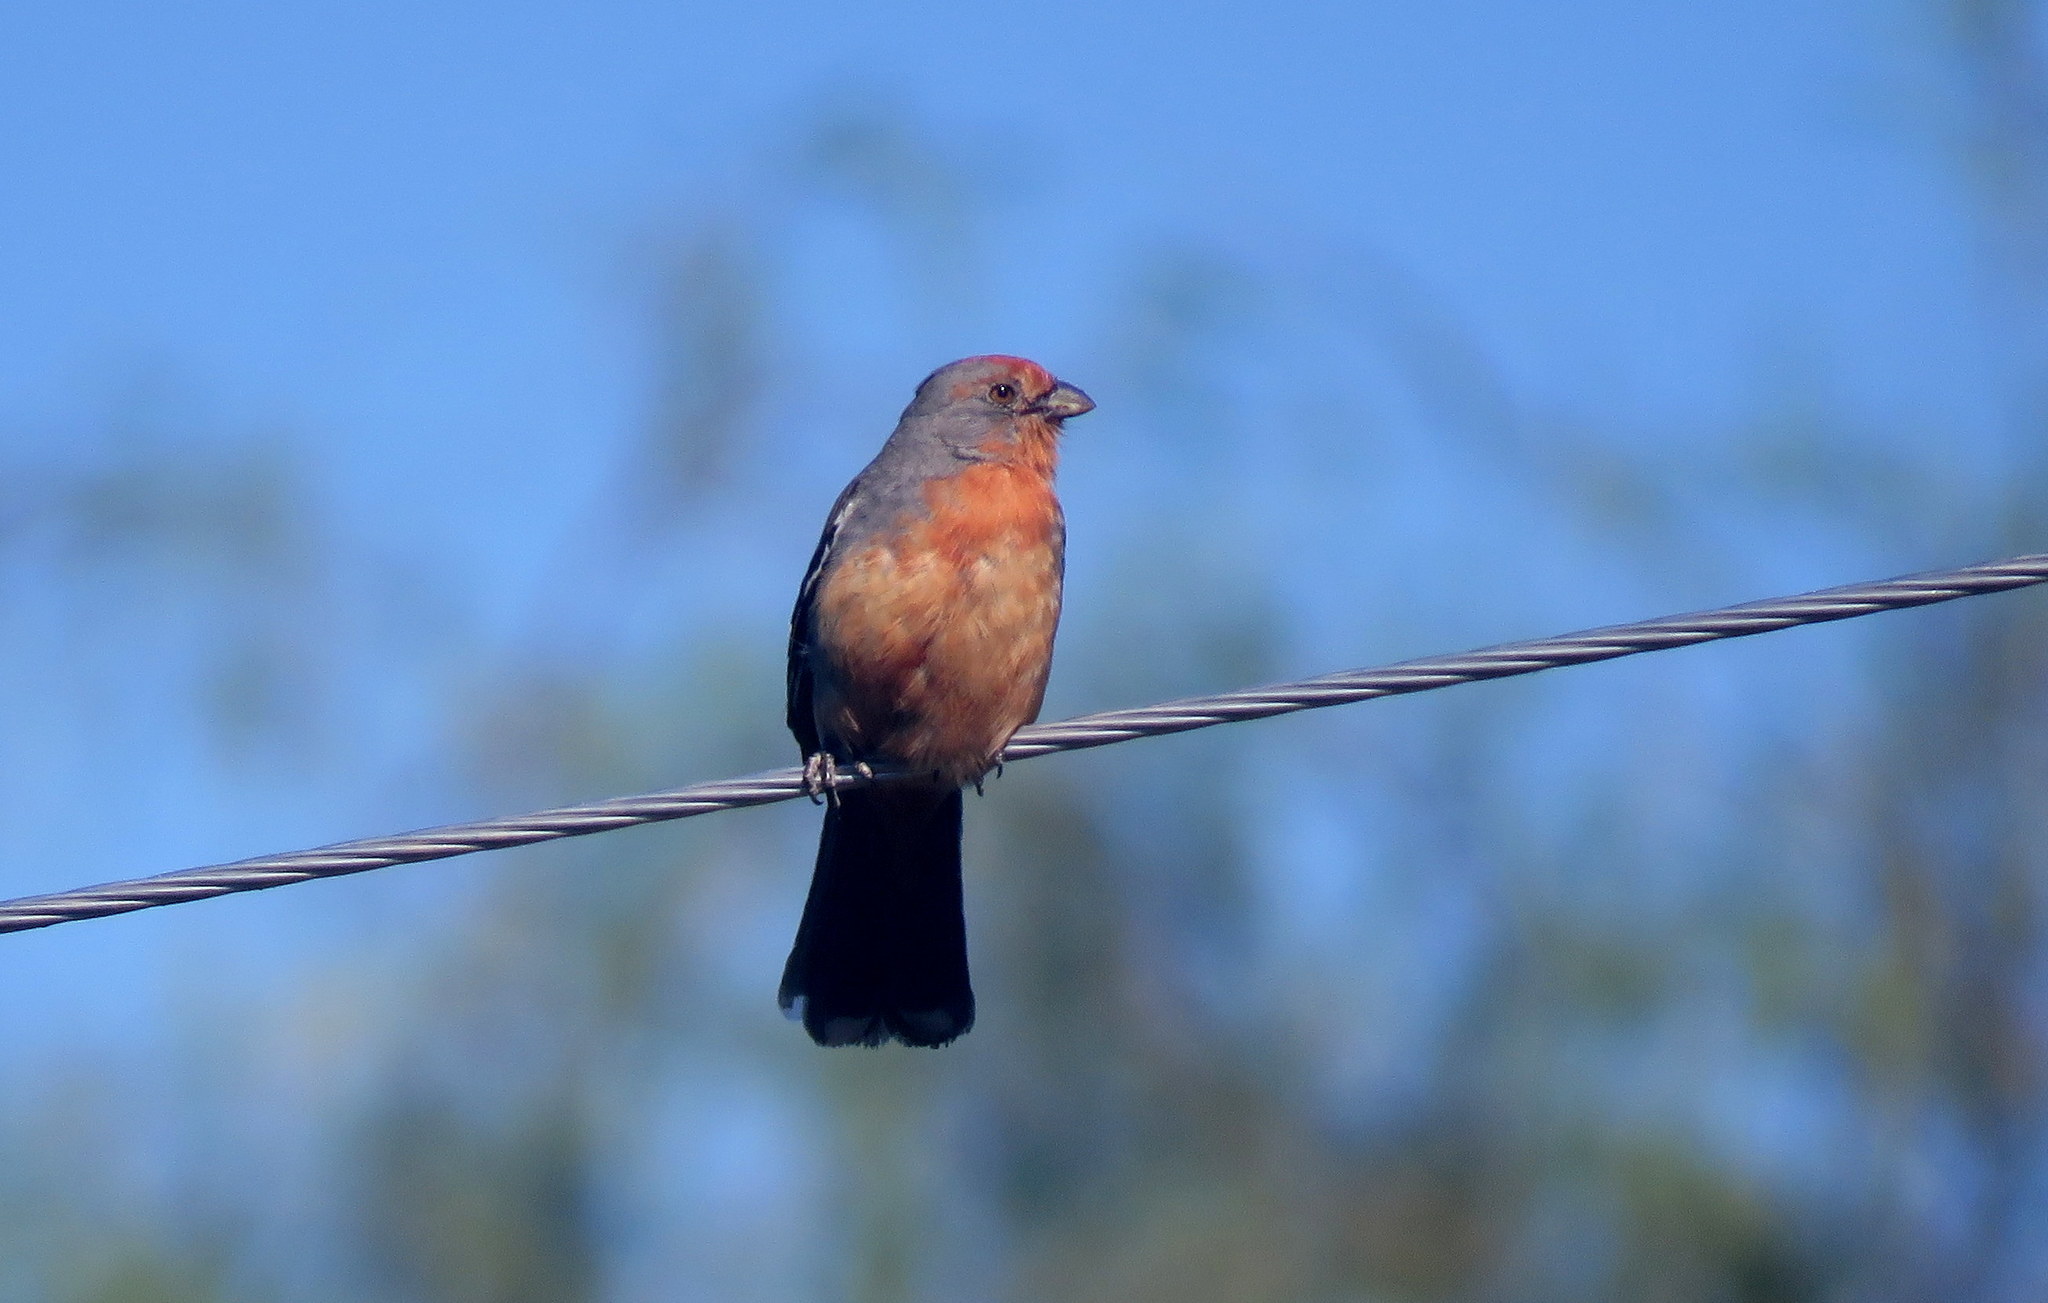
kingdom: Animalia
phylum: Chordata
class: Aves
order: Passeriformes
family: Cotingidae
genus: Phytotoma
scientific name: Phytotoma rutila
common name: White-tipped plantcutter
